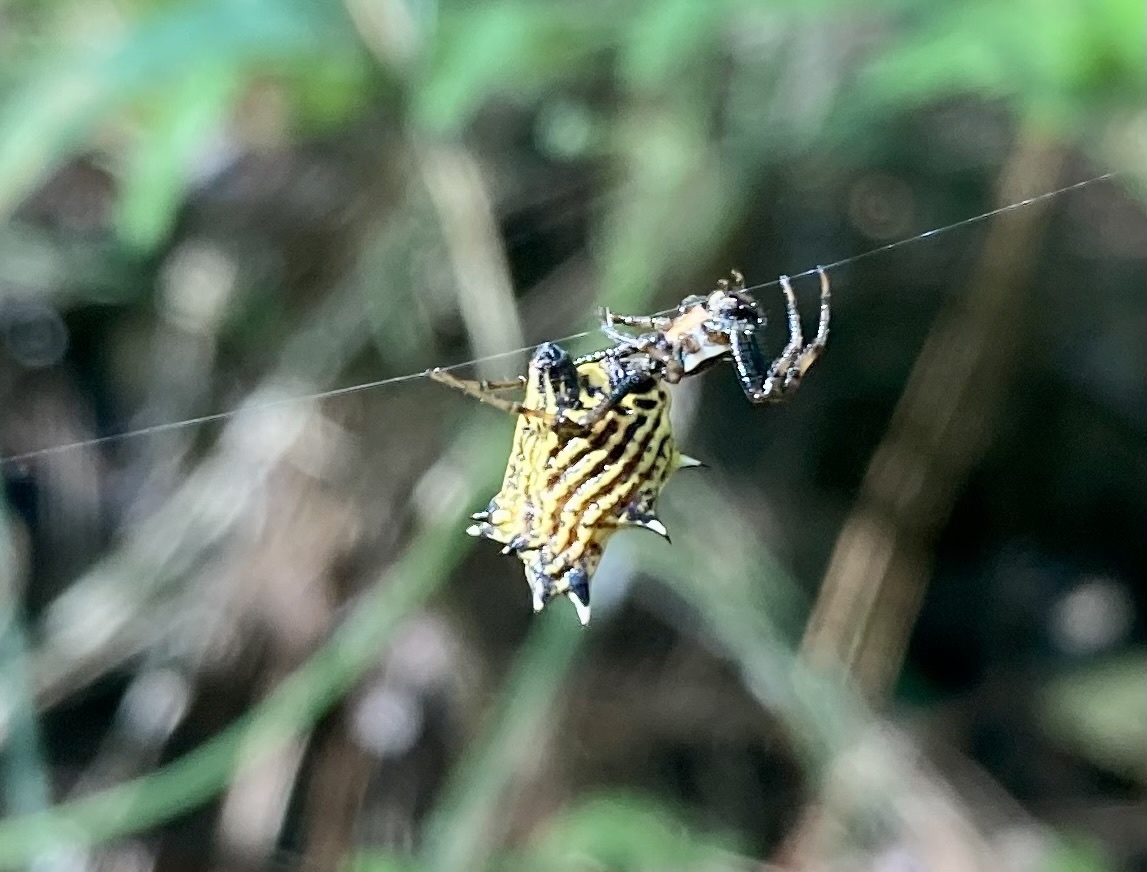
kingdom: Animalia
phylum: Arthropoda
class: Arachnida
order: Araneae
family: Araneidae
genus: Micrathena
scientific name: Micrathena gracilis
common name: Orb weavers
